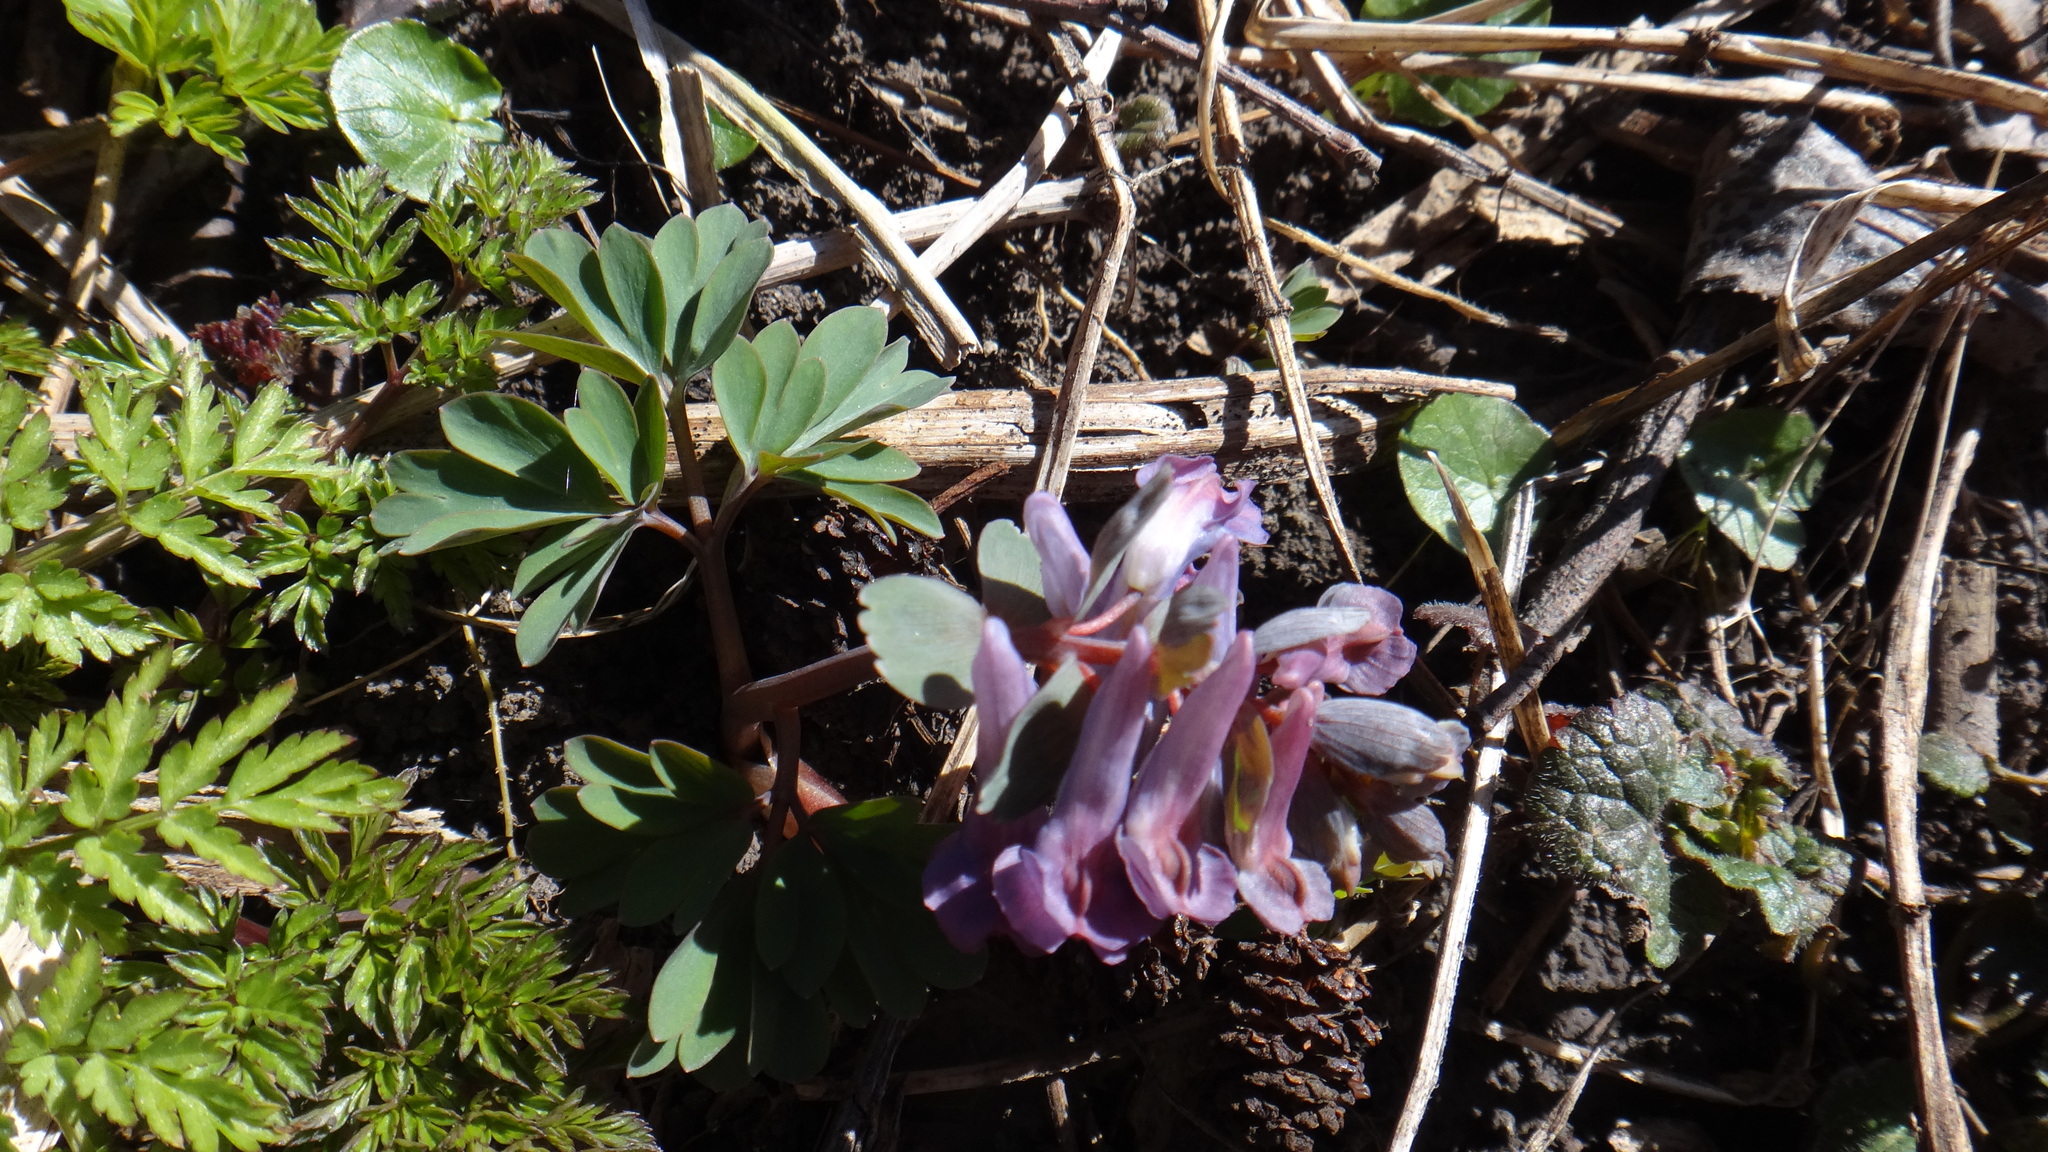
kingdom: Plantae
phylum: Tracheophyta
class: Magnoliopsida
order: Ranunculales
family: Papaveraceae
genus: Corydalis
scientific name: Corydalis solida
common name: Bird-in-a-bush
